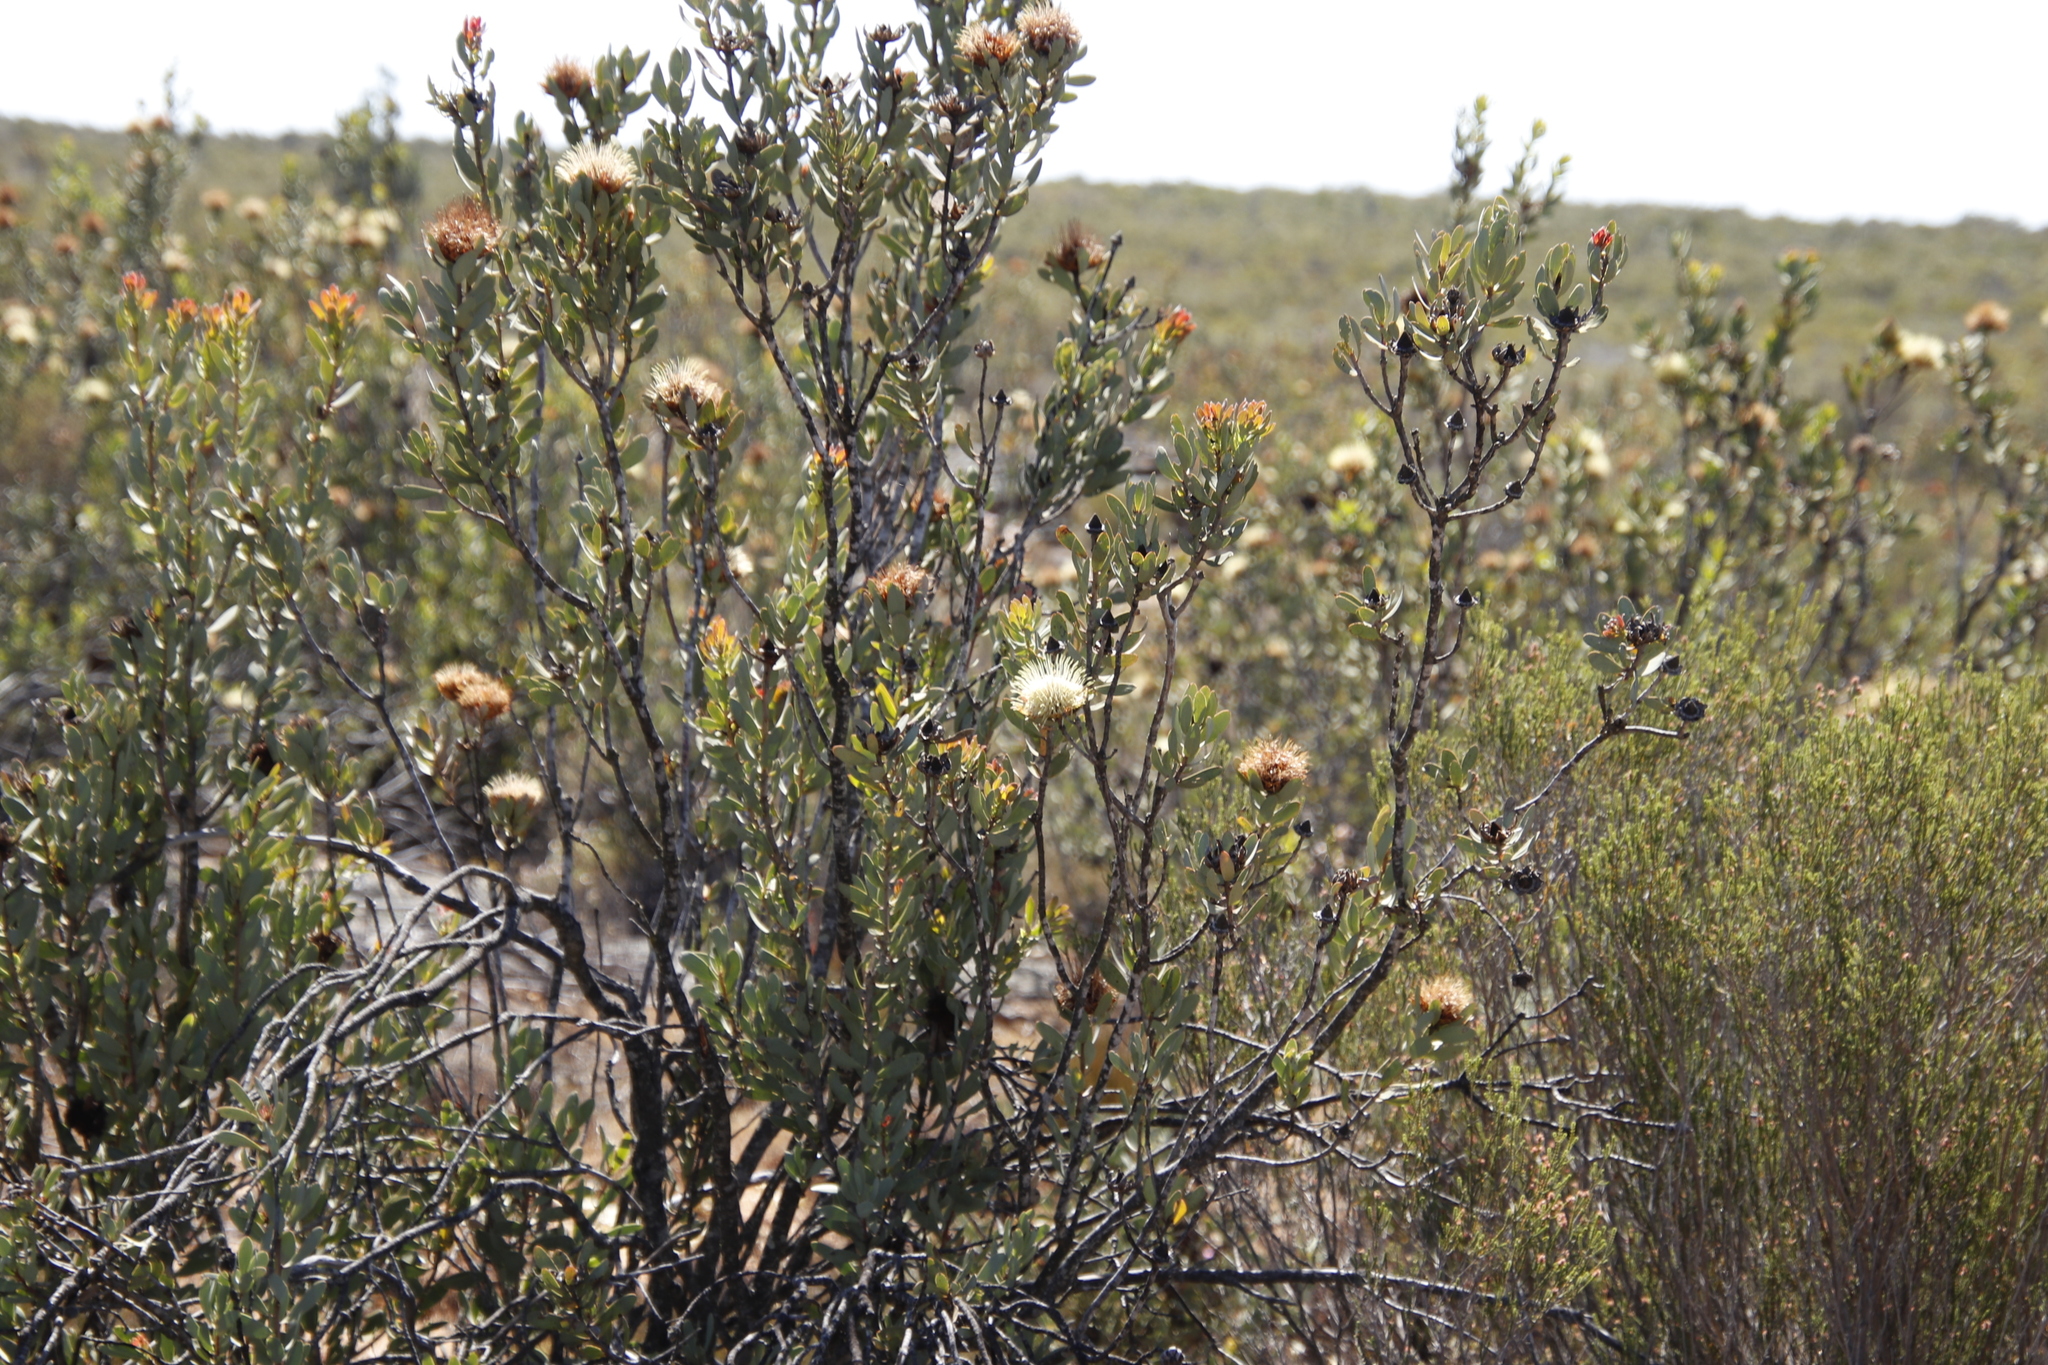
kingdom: Plantae
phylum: Tracheophyta
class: Magnoliopsida
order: Proteales
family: Proteaceae
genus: Protea
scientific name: Protea glabra
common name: Chestnut sugarbush
